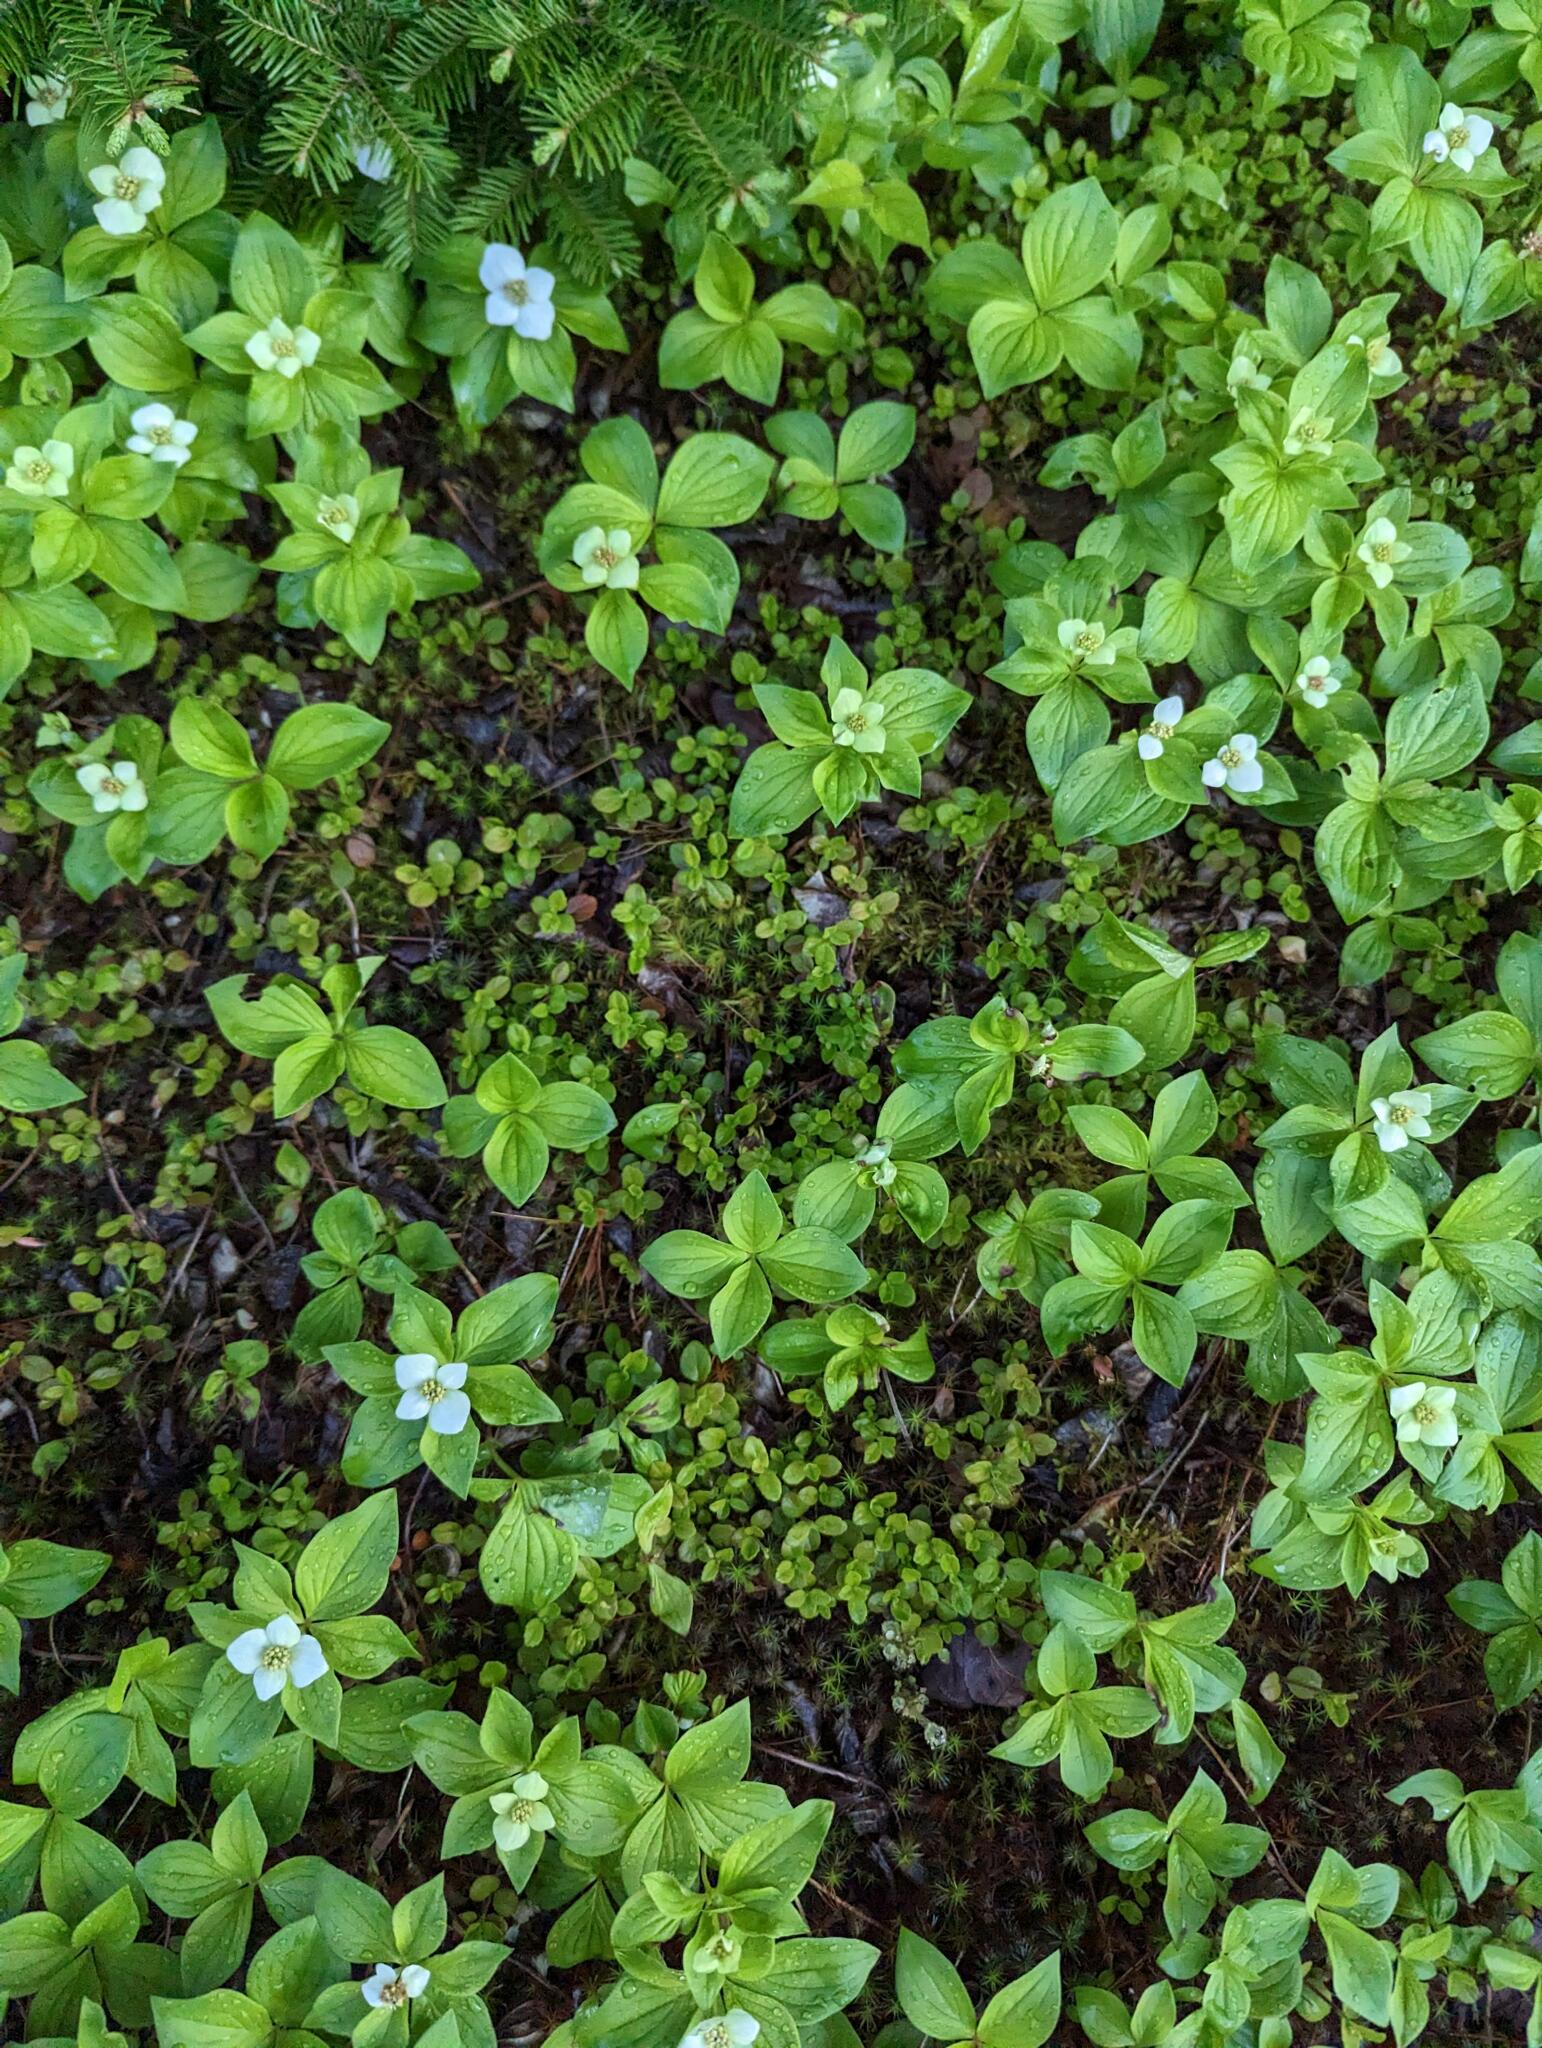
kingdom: Plantae
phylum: Tracheophyta
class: Magnoliopsida
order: Dipsacales
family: Caprifoliaceae
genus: Linnaea
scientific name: Linnaea borealis
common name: Twinflower
